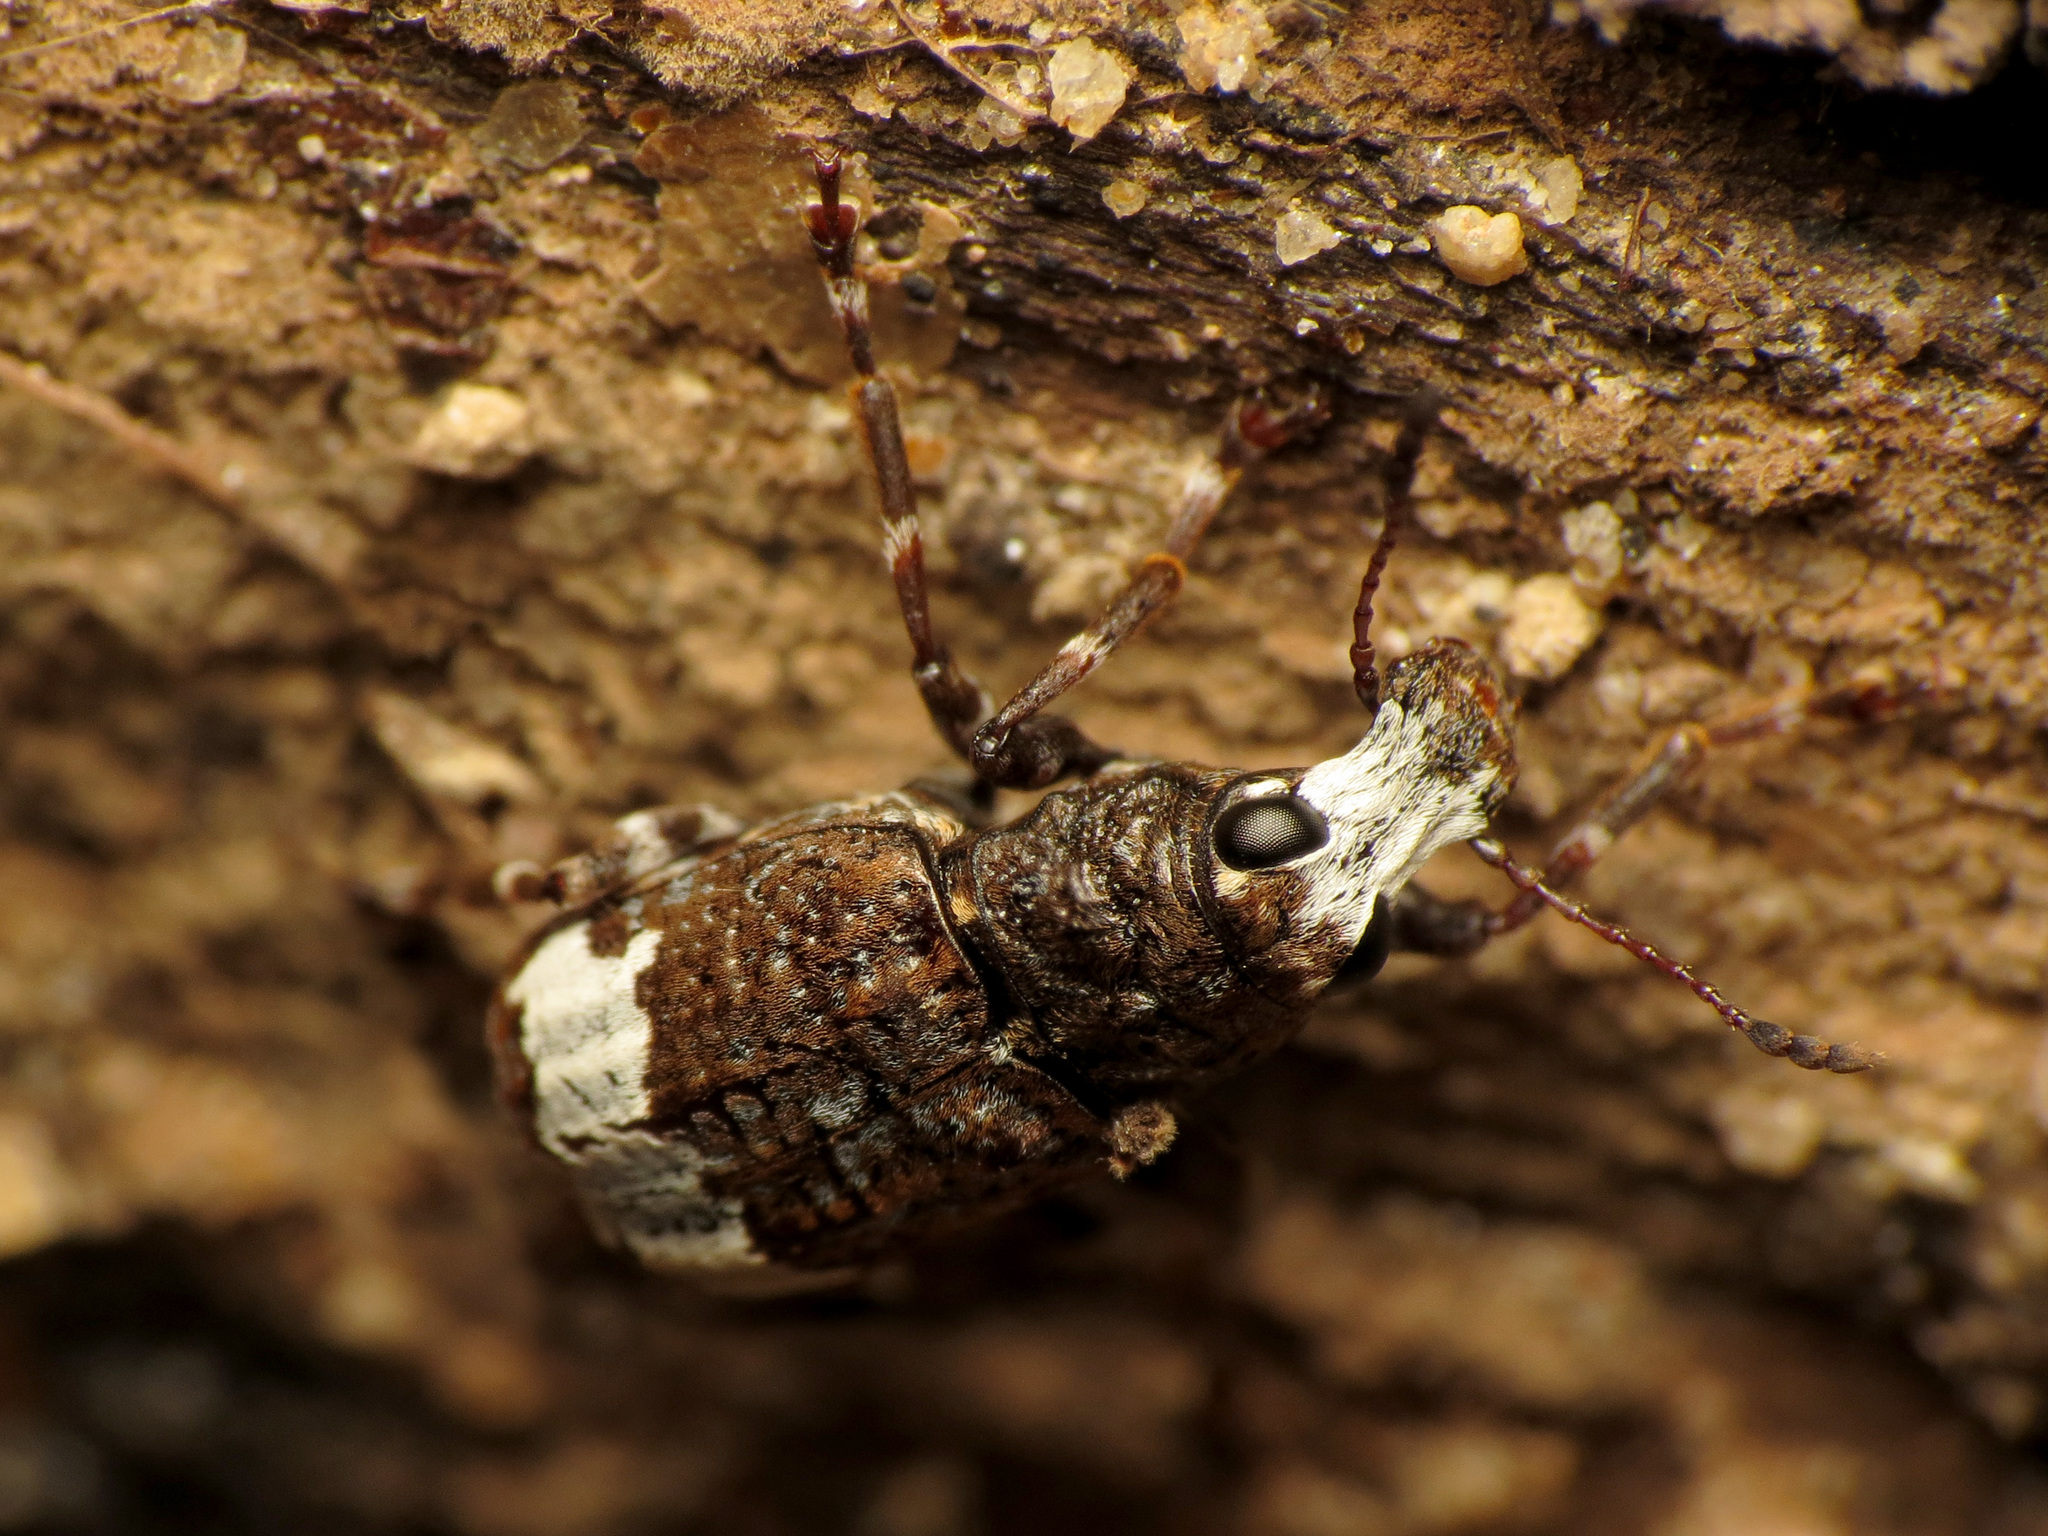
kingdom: Animalia
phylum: Arthropoda
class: Insecta
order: Coleoptera
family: Anthribidae
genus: Eurymycter
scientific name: Eurymycter fasciatus
